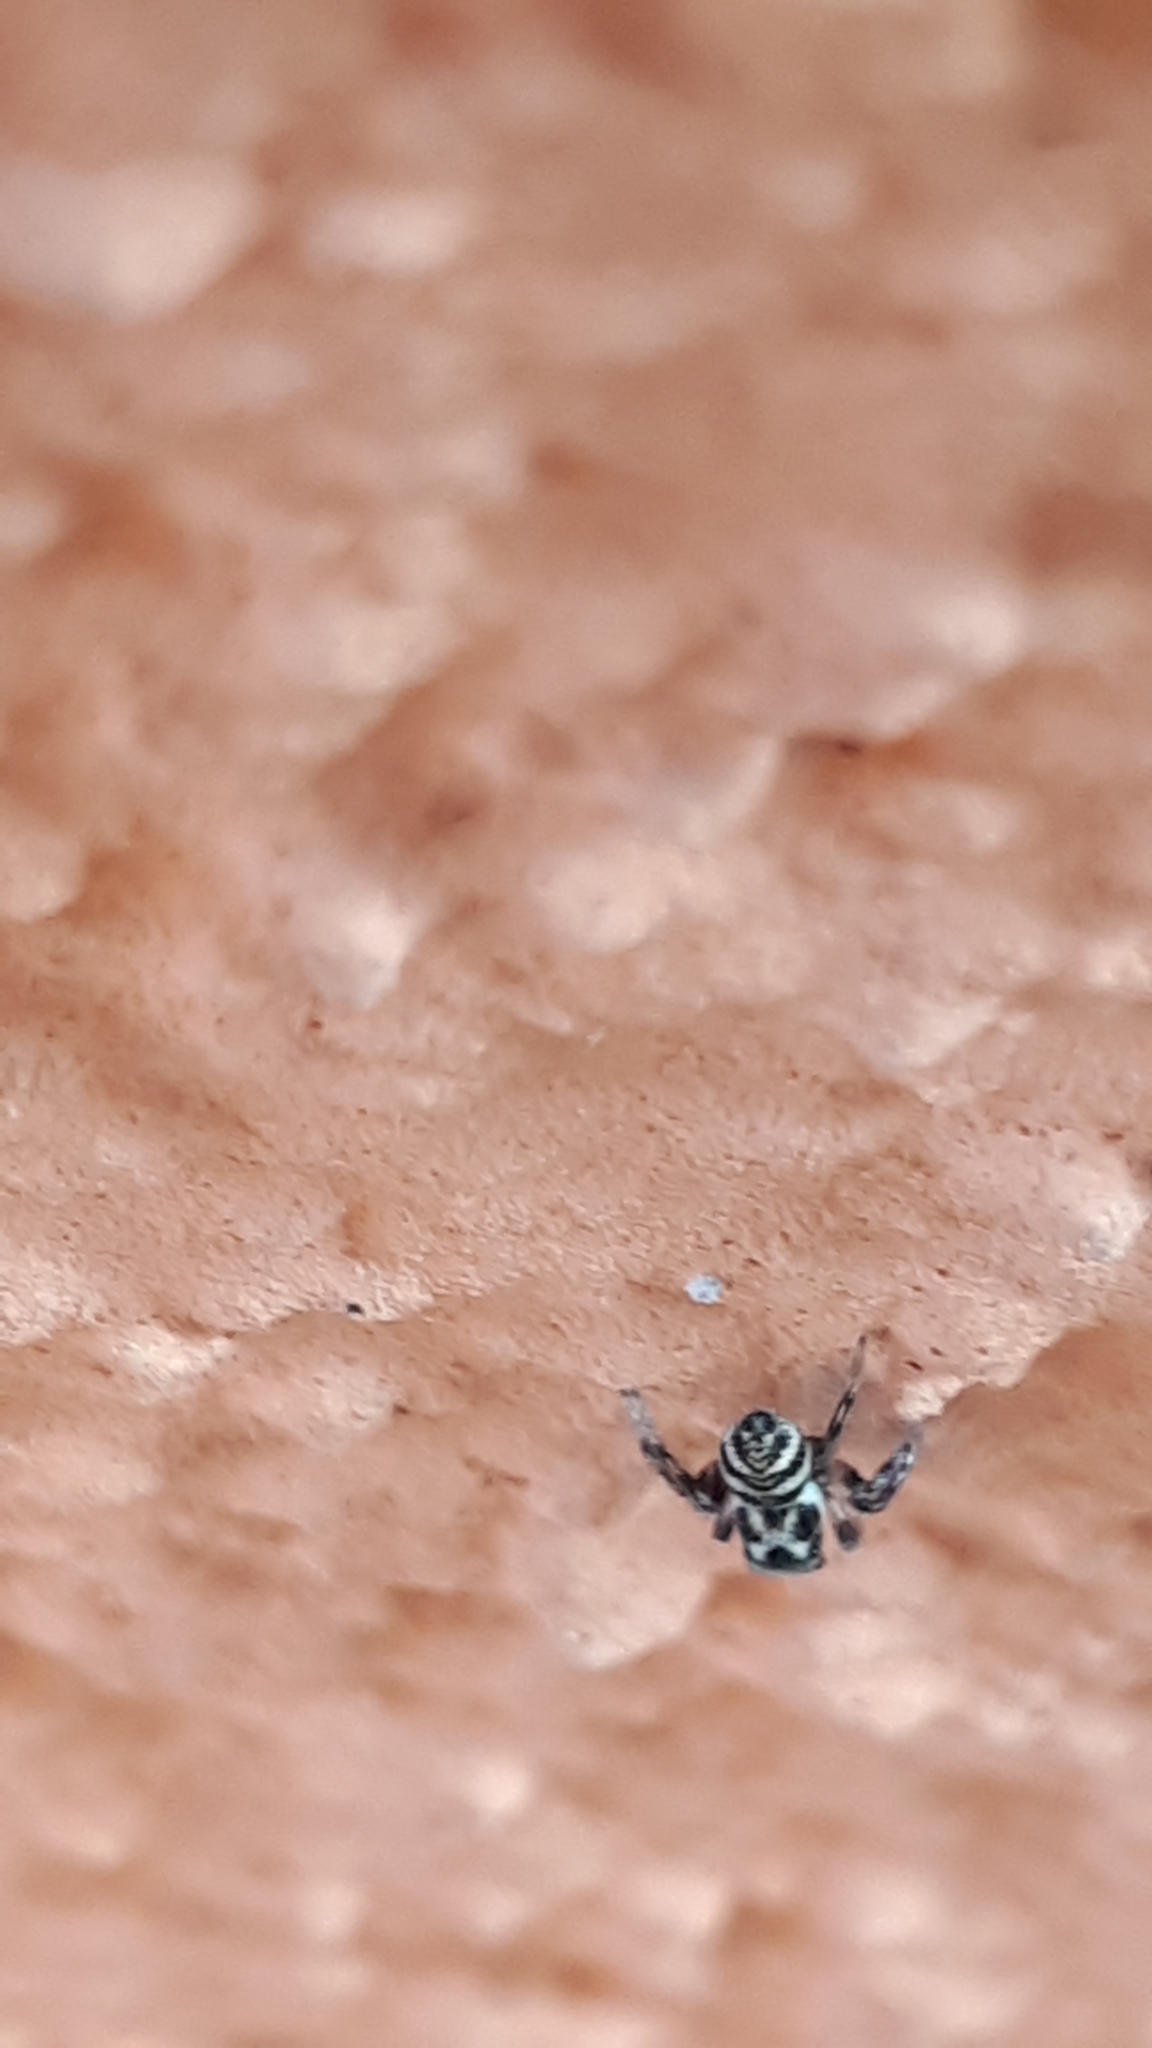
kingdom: Animalia
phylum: Arthropoda
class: Arachnida
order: Araneae
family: Salticidae
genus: Salticus
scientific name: Salticus scenicus
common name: Zebra jumper
